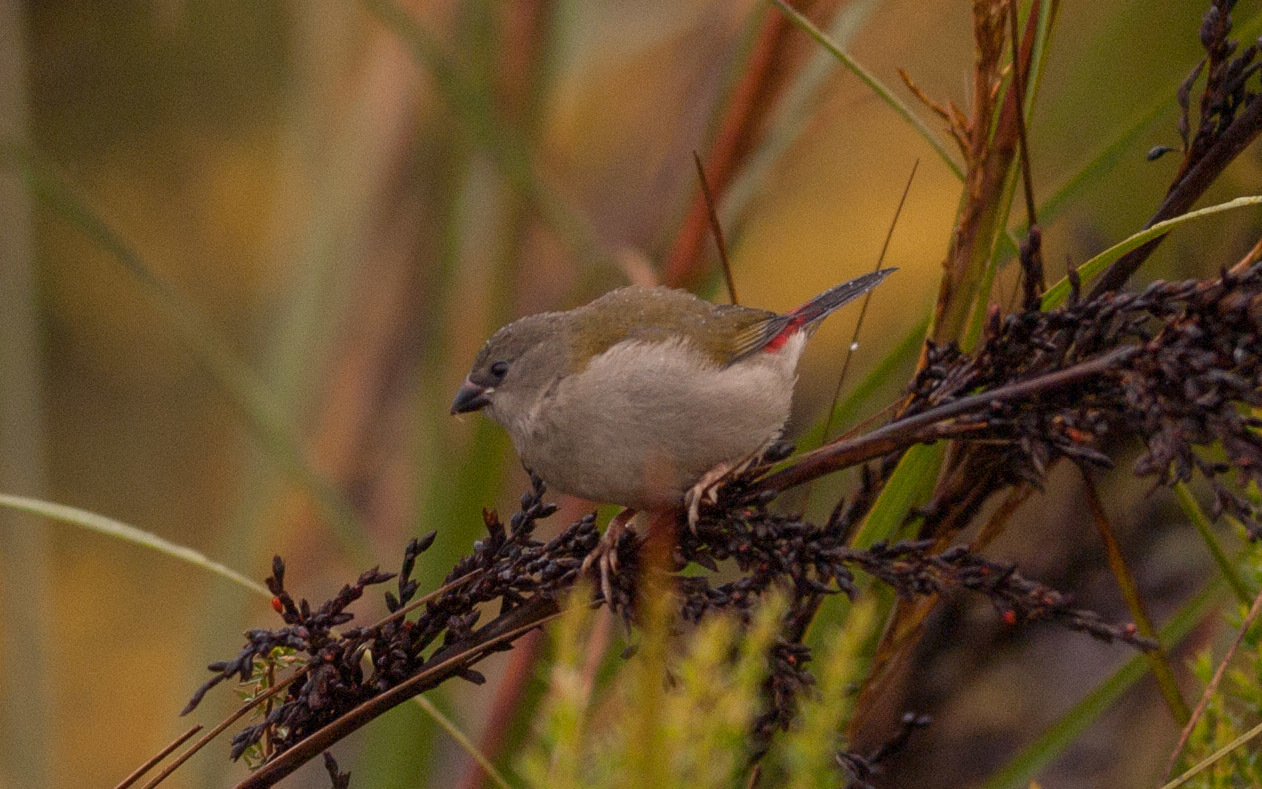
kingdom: Animalia
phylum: Chordata
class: Aves
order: Passeriformes
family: Estrildidae
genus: Neochmia
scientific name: Neochmia temporalis
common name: Red-browed finch
